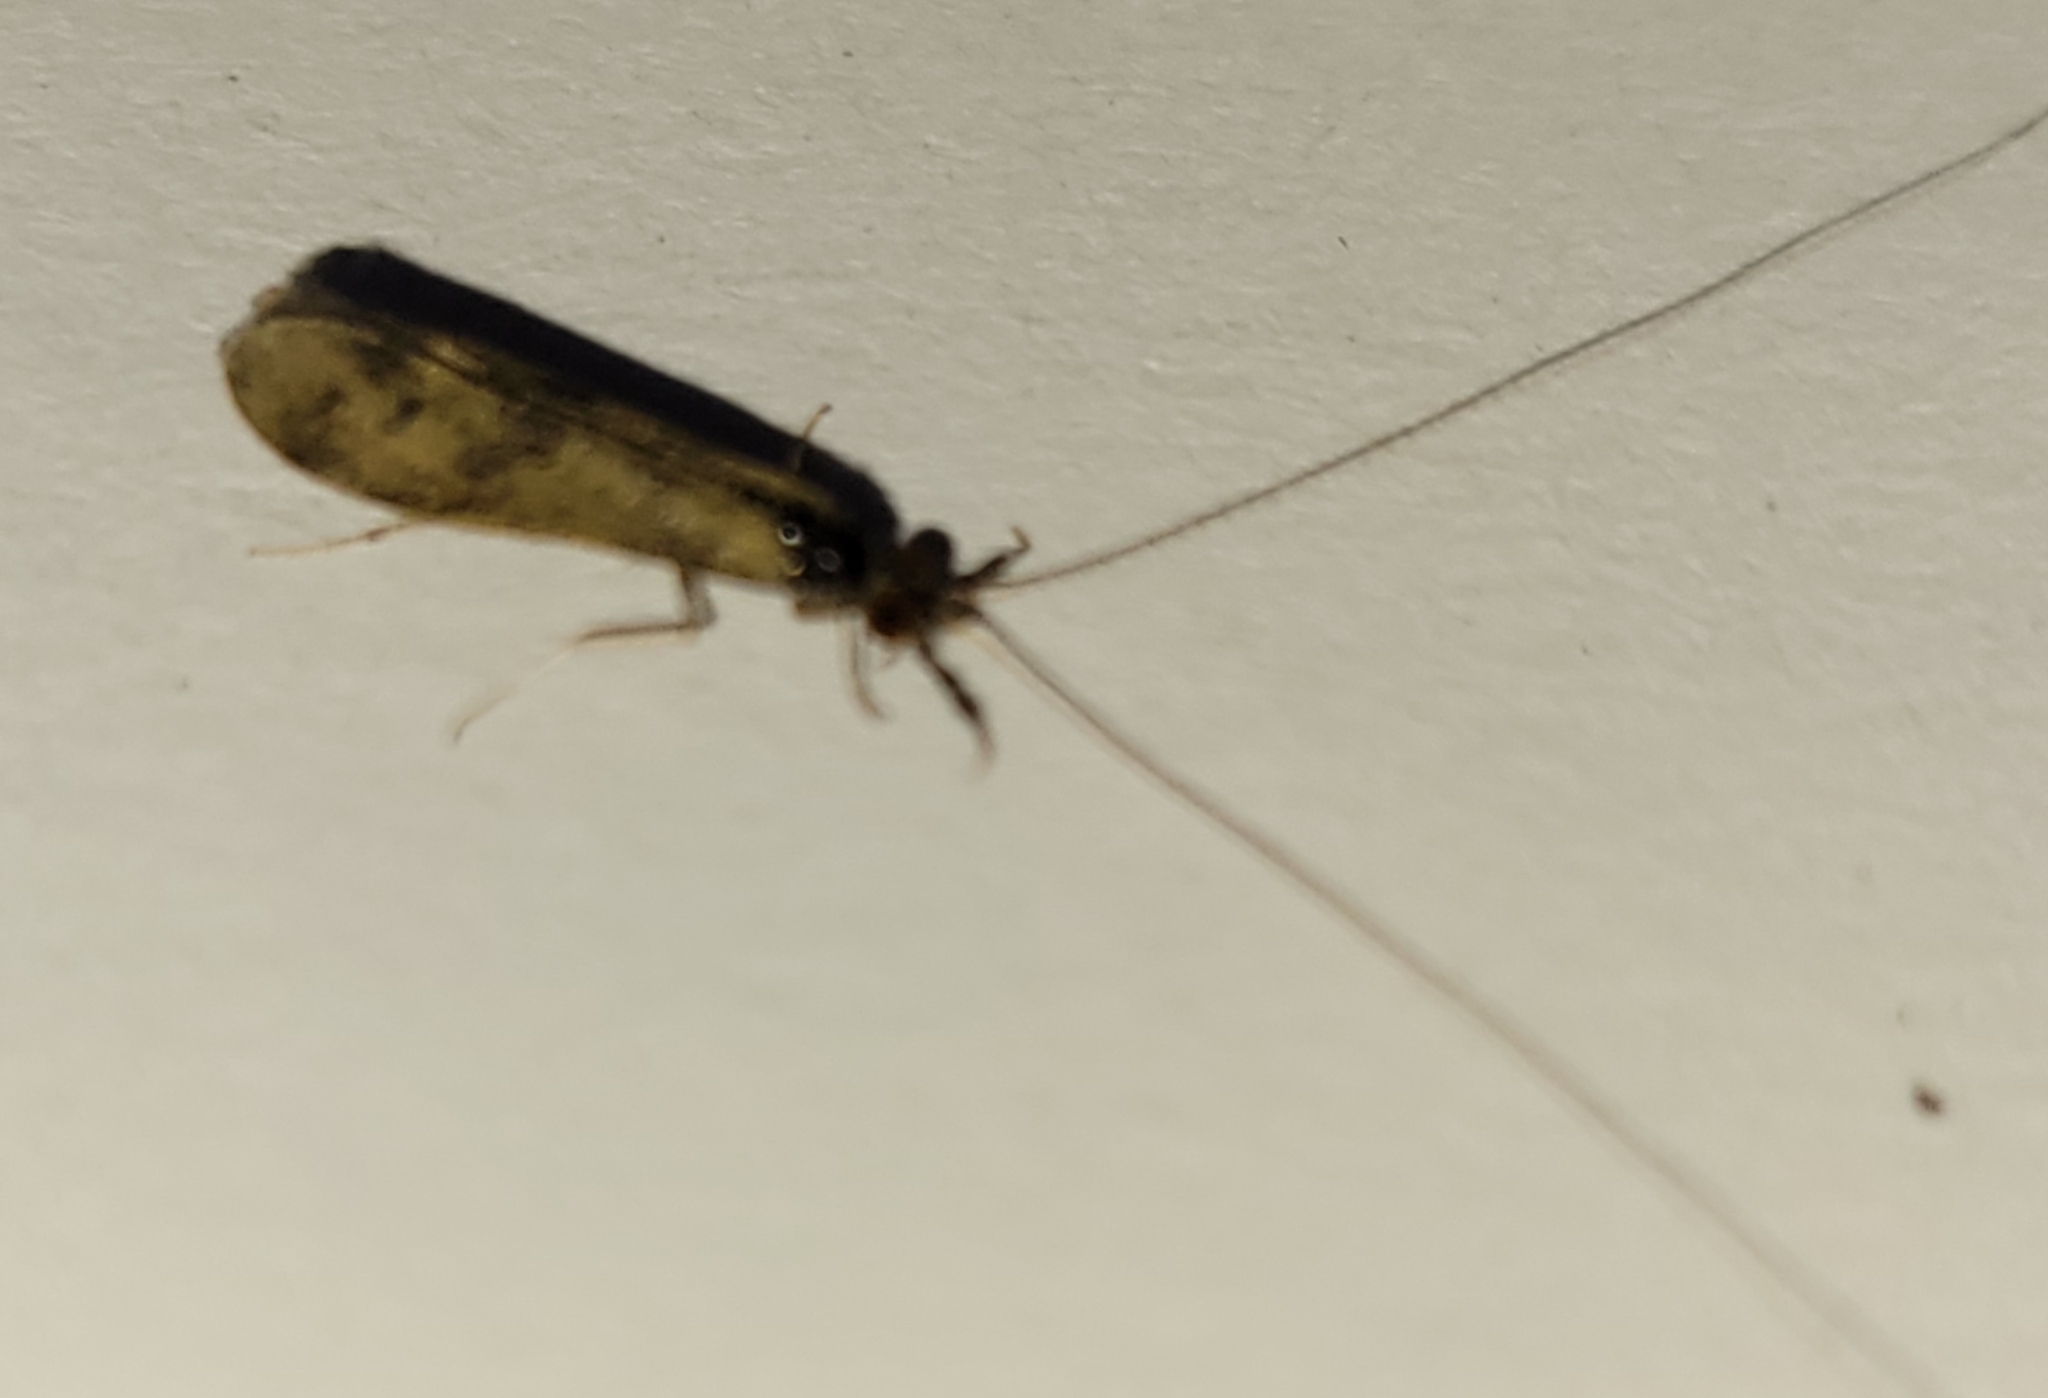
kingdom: Animalia
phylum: Arthropoda
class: Insecta
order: Trichoptera
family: Leptoceridae
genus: Mystacides
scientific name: Mystacides longicornis
